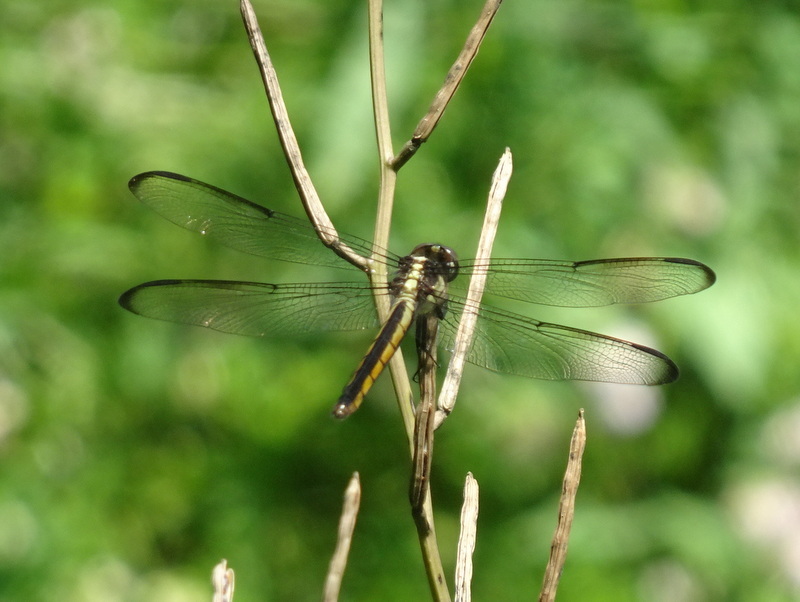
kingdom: Animalia
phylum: Arthropoda
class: Insecta
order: Odonata
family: Libellulidae
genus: Libellula
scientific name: Libellula incesta
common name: Slaty skimmer
